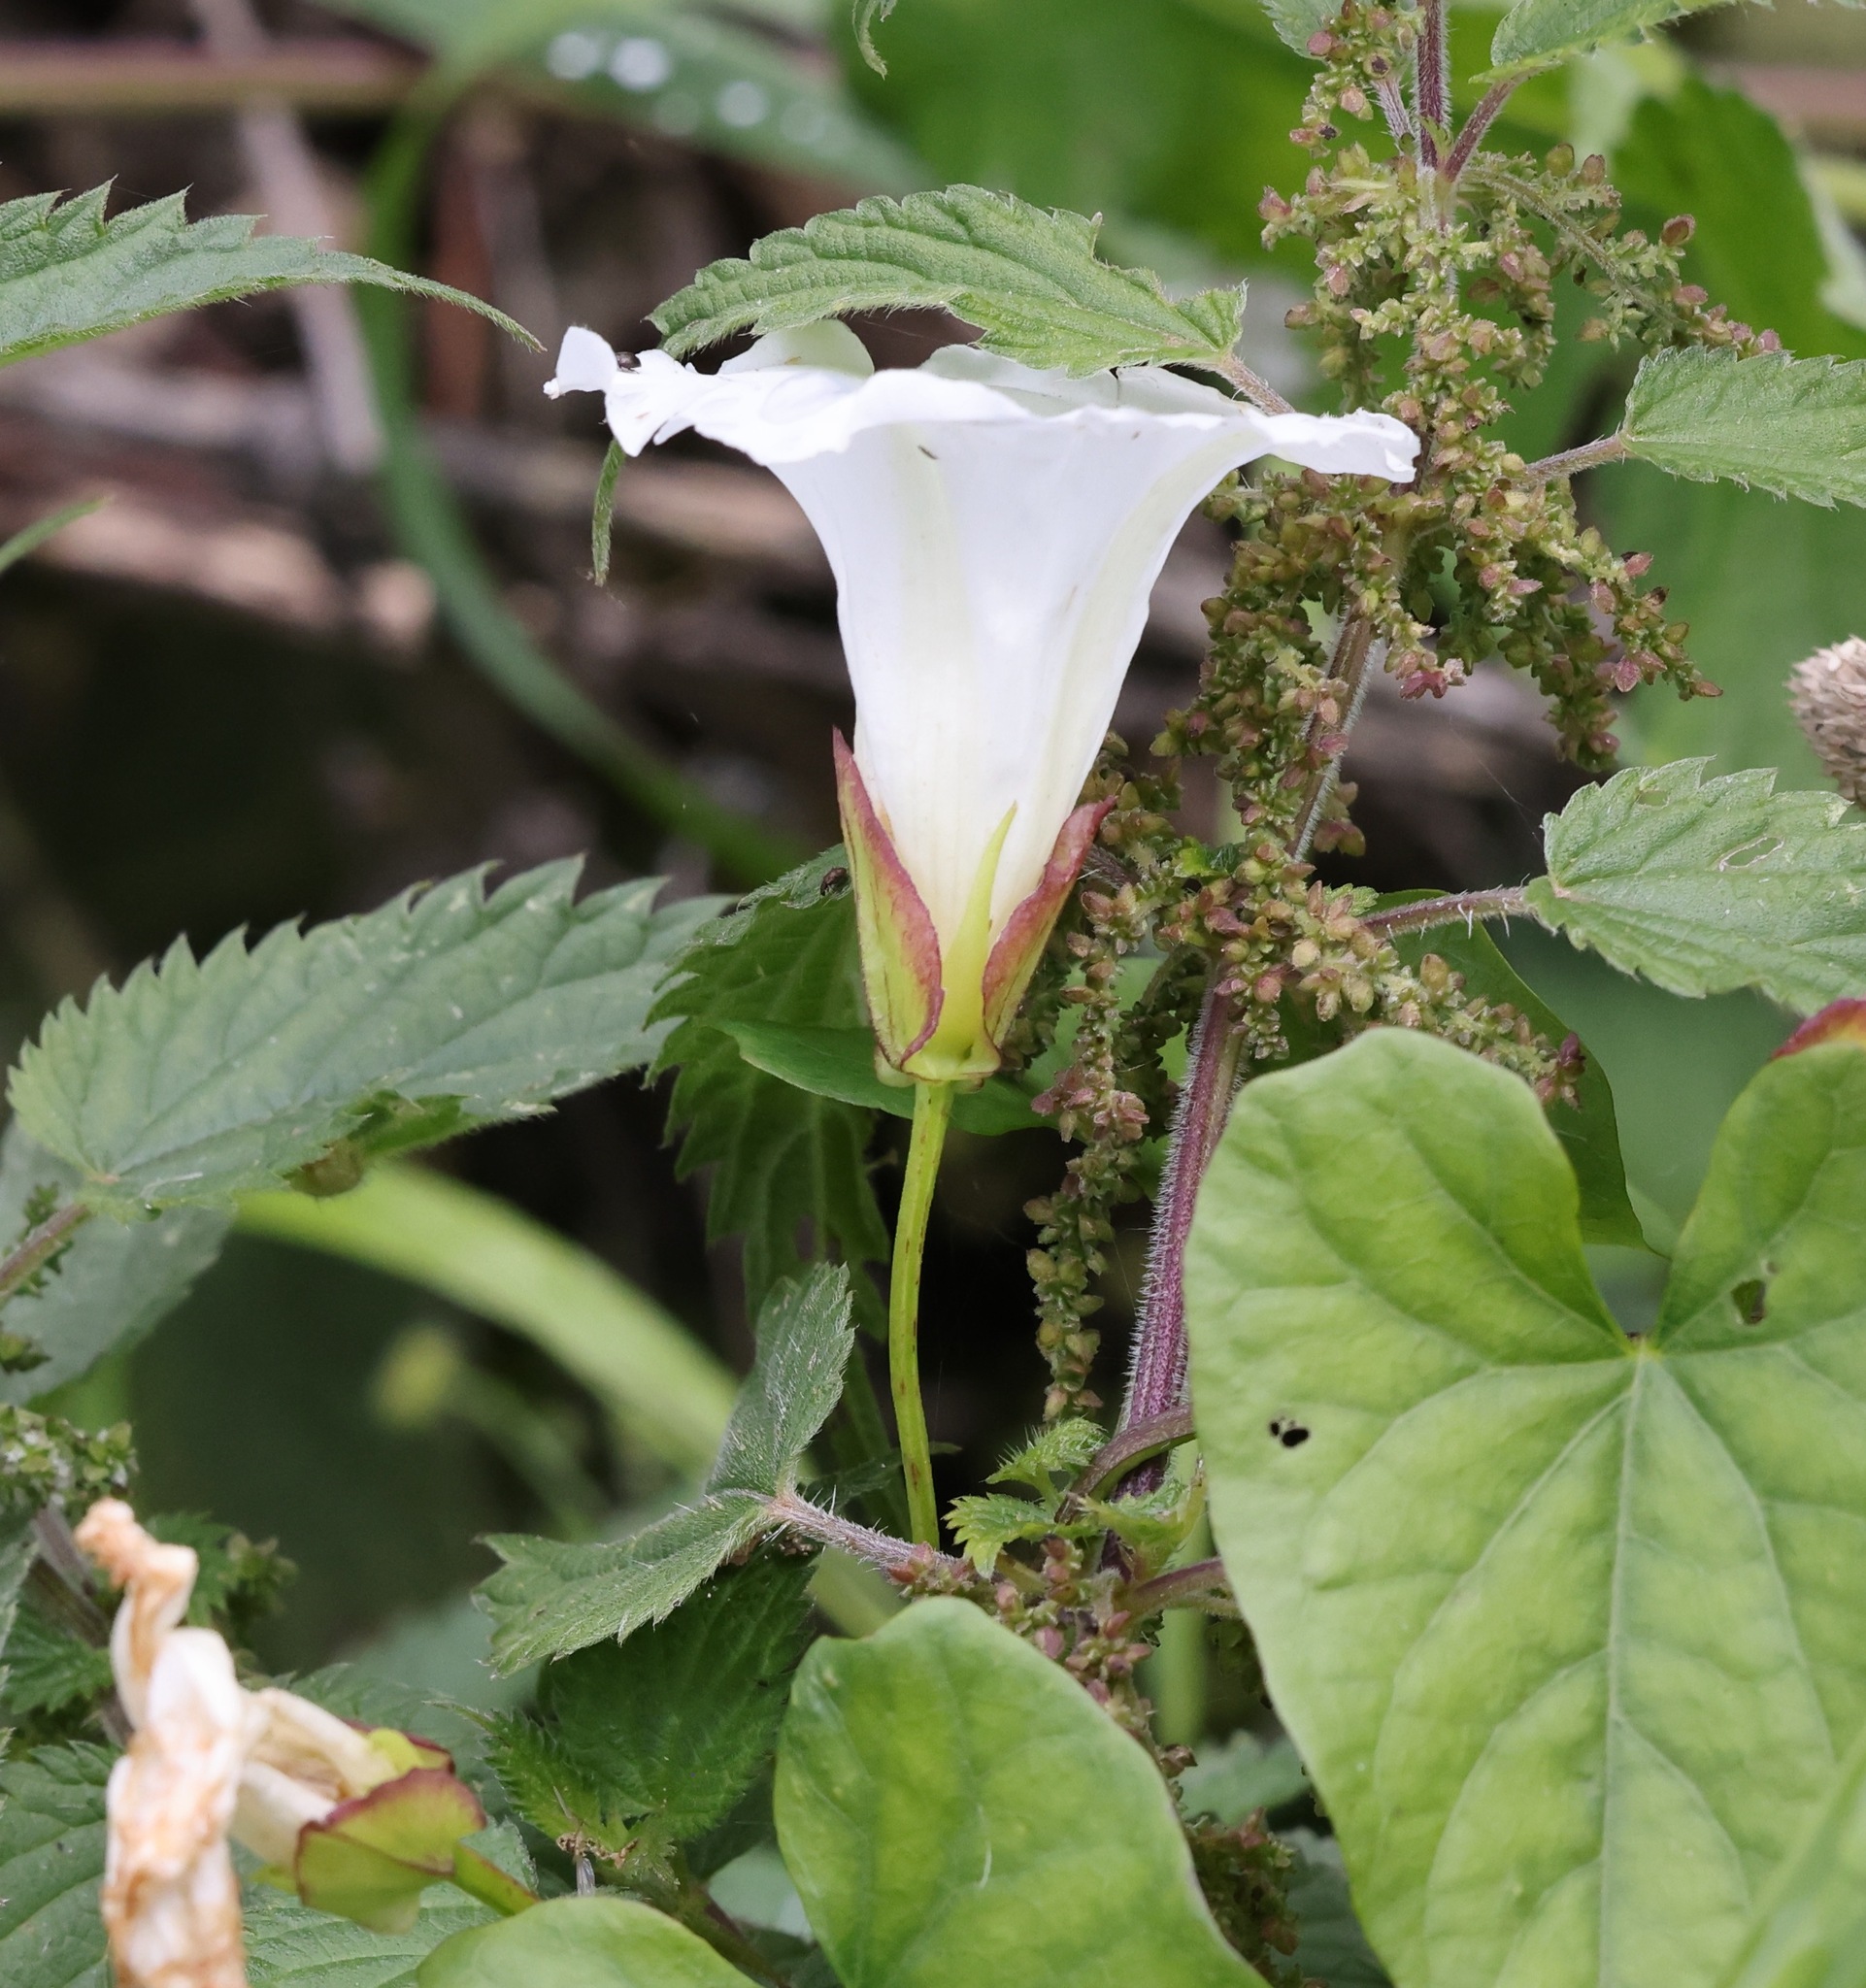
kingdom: Plantae
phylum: Tracheophyta
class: Magnoliopsida
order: Solanales
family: Convolvulaceae
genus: Calystegia
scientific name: Calystegia sepium
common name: Hedge bindweed
